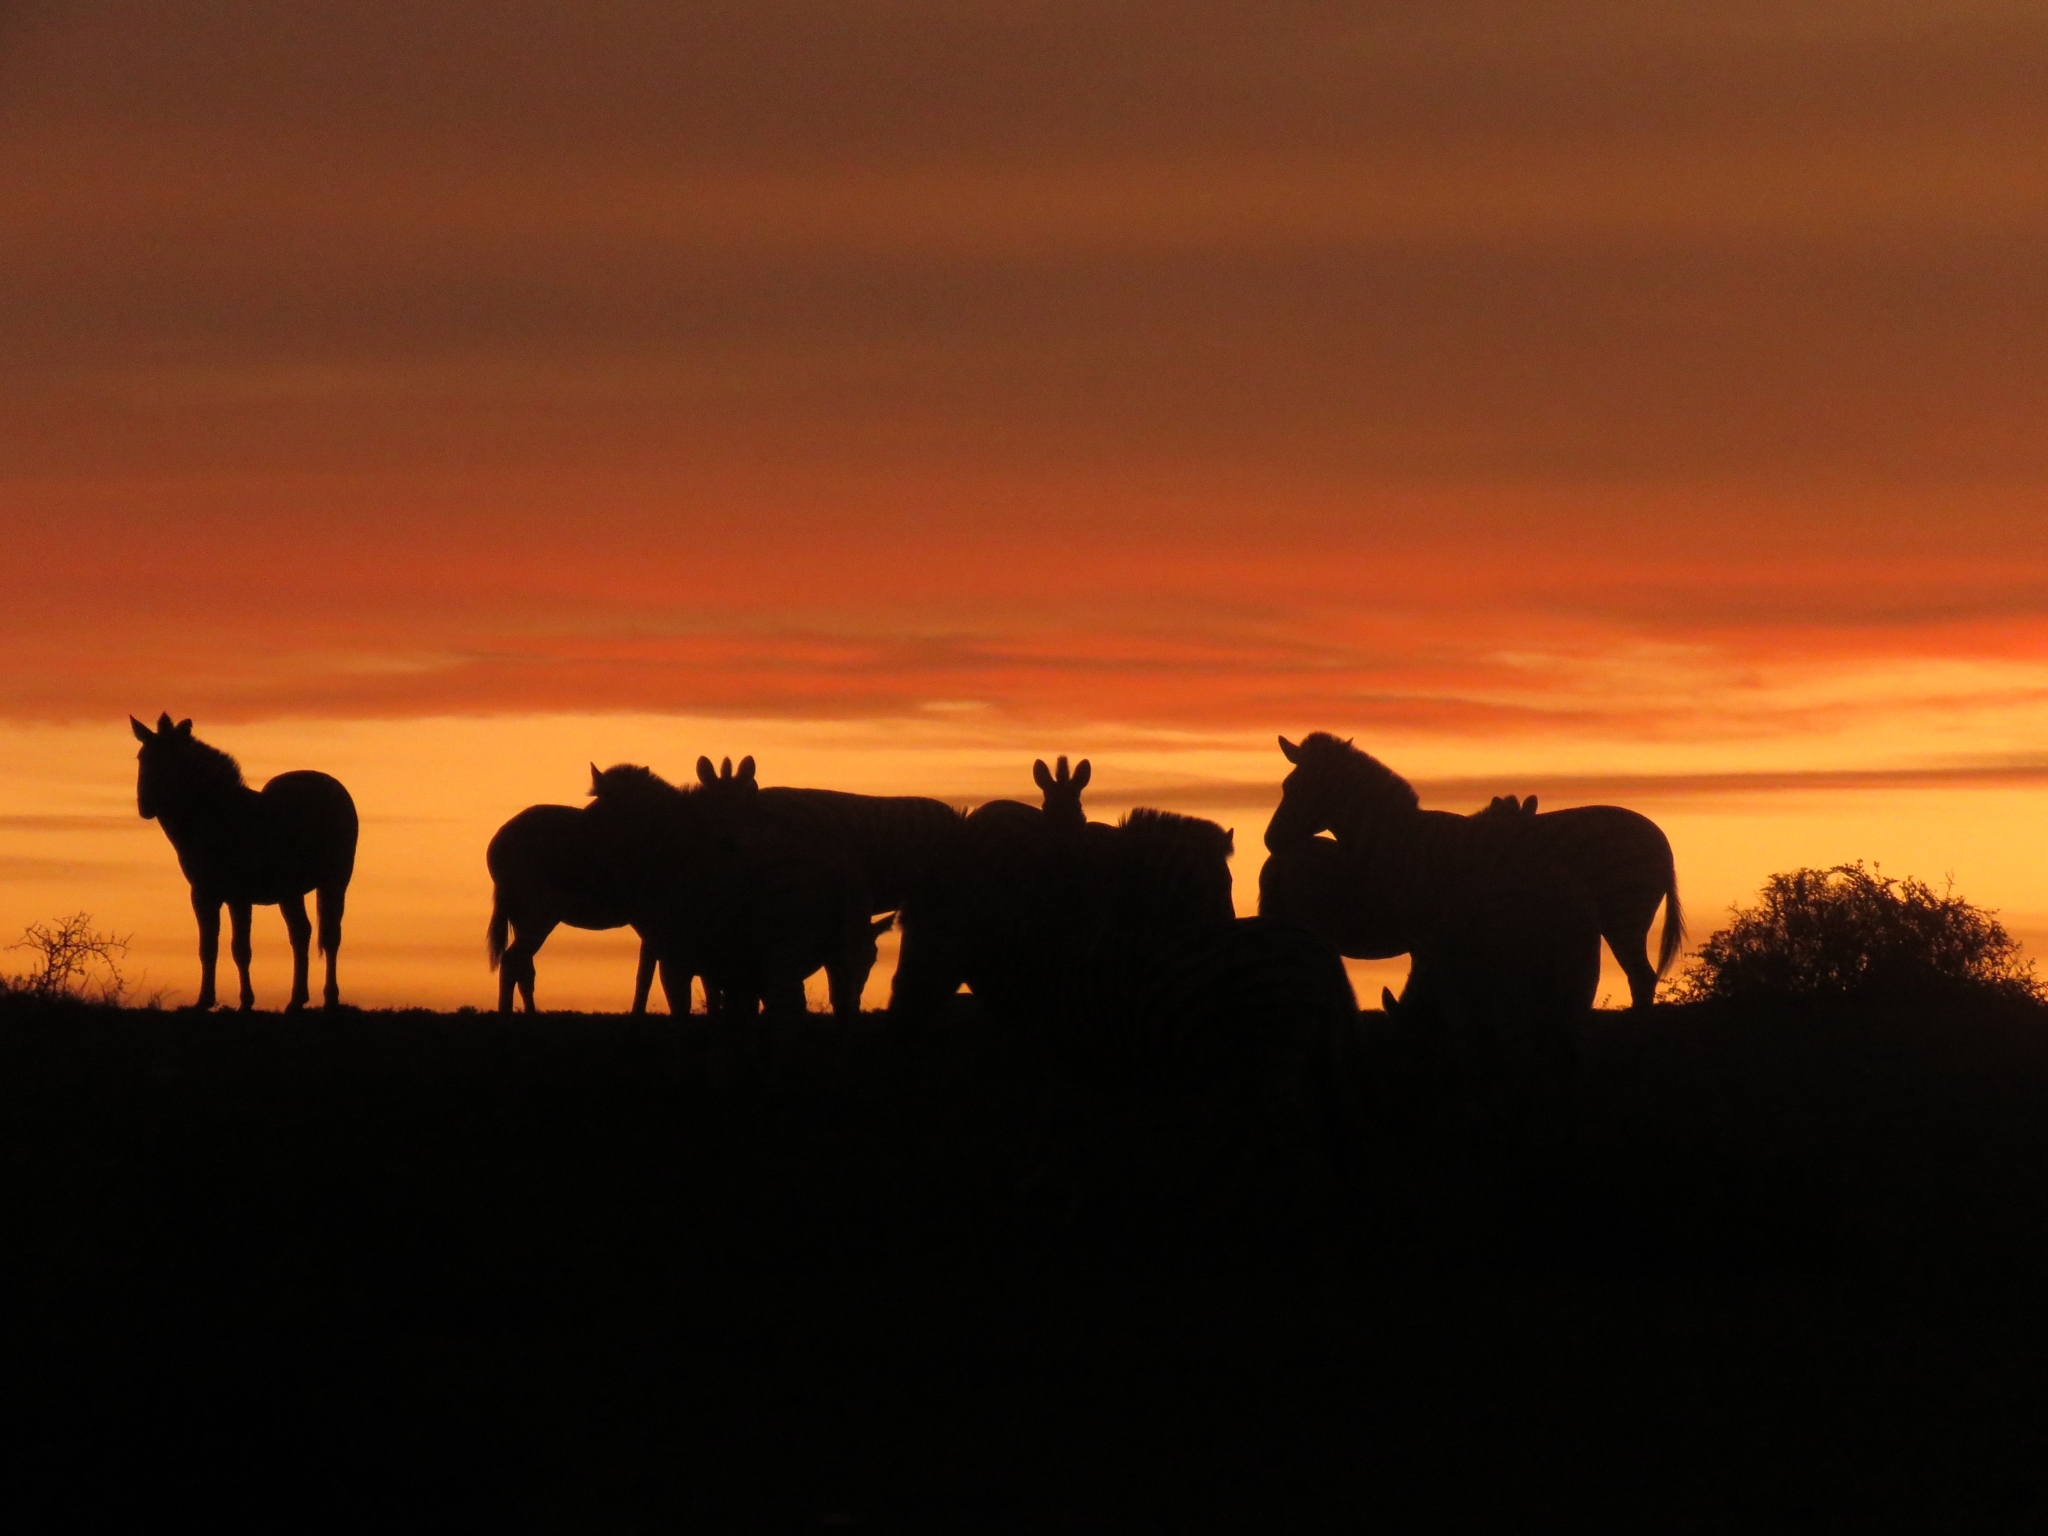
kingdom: Animalia
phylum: Chordata
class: Mammalia
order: Perissodactyla
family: Equidae
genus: Equus
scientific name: Equus quagga
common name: Plains zebra
